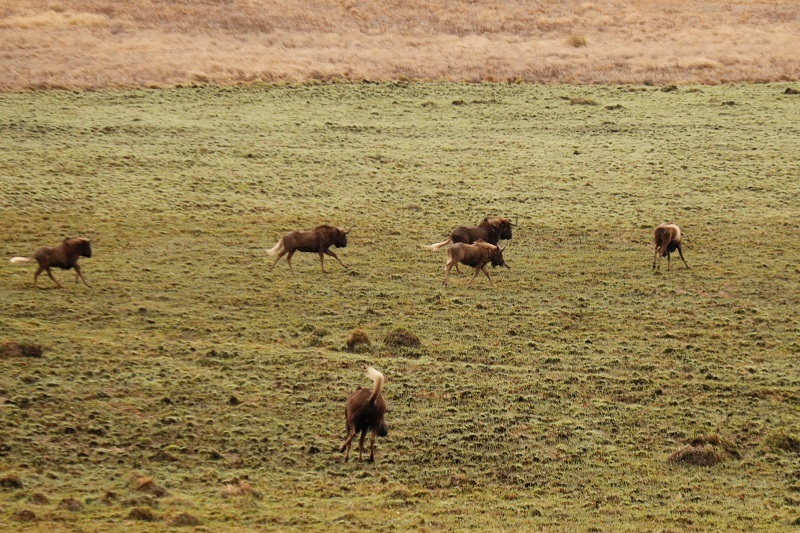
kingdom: Animalia
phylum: Chordata
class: Mammalia
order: Artiodactyla
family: Bovidae
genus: Connochaetes
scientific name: Connochaetes gnou
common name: Black wildebeest
